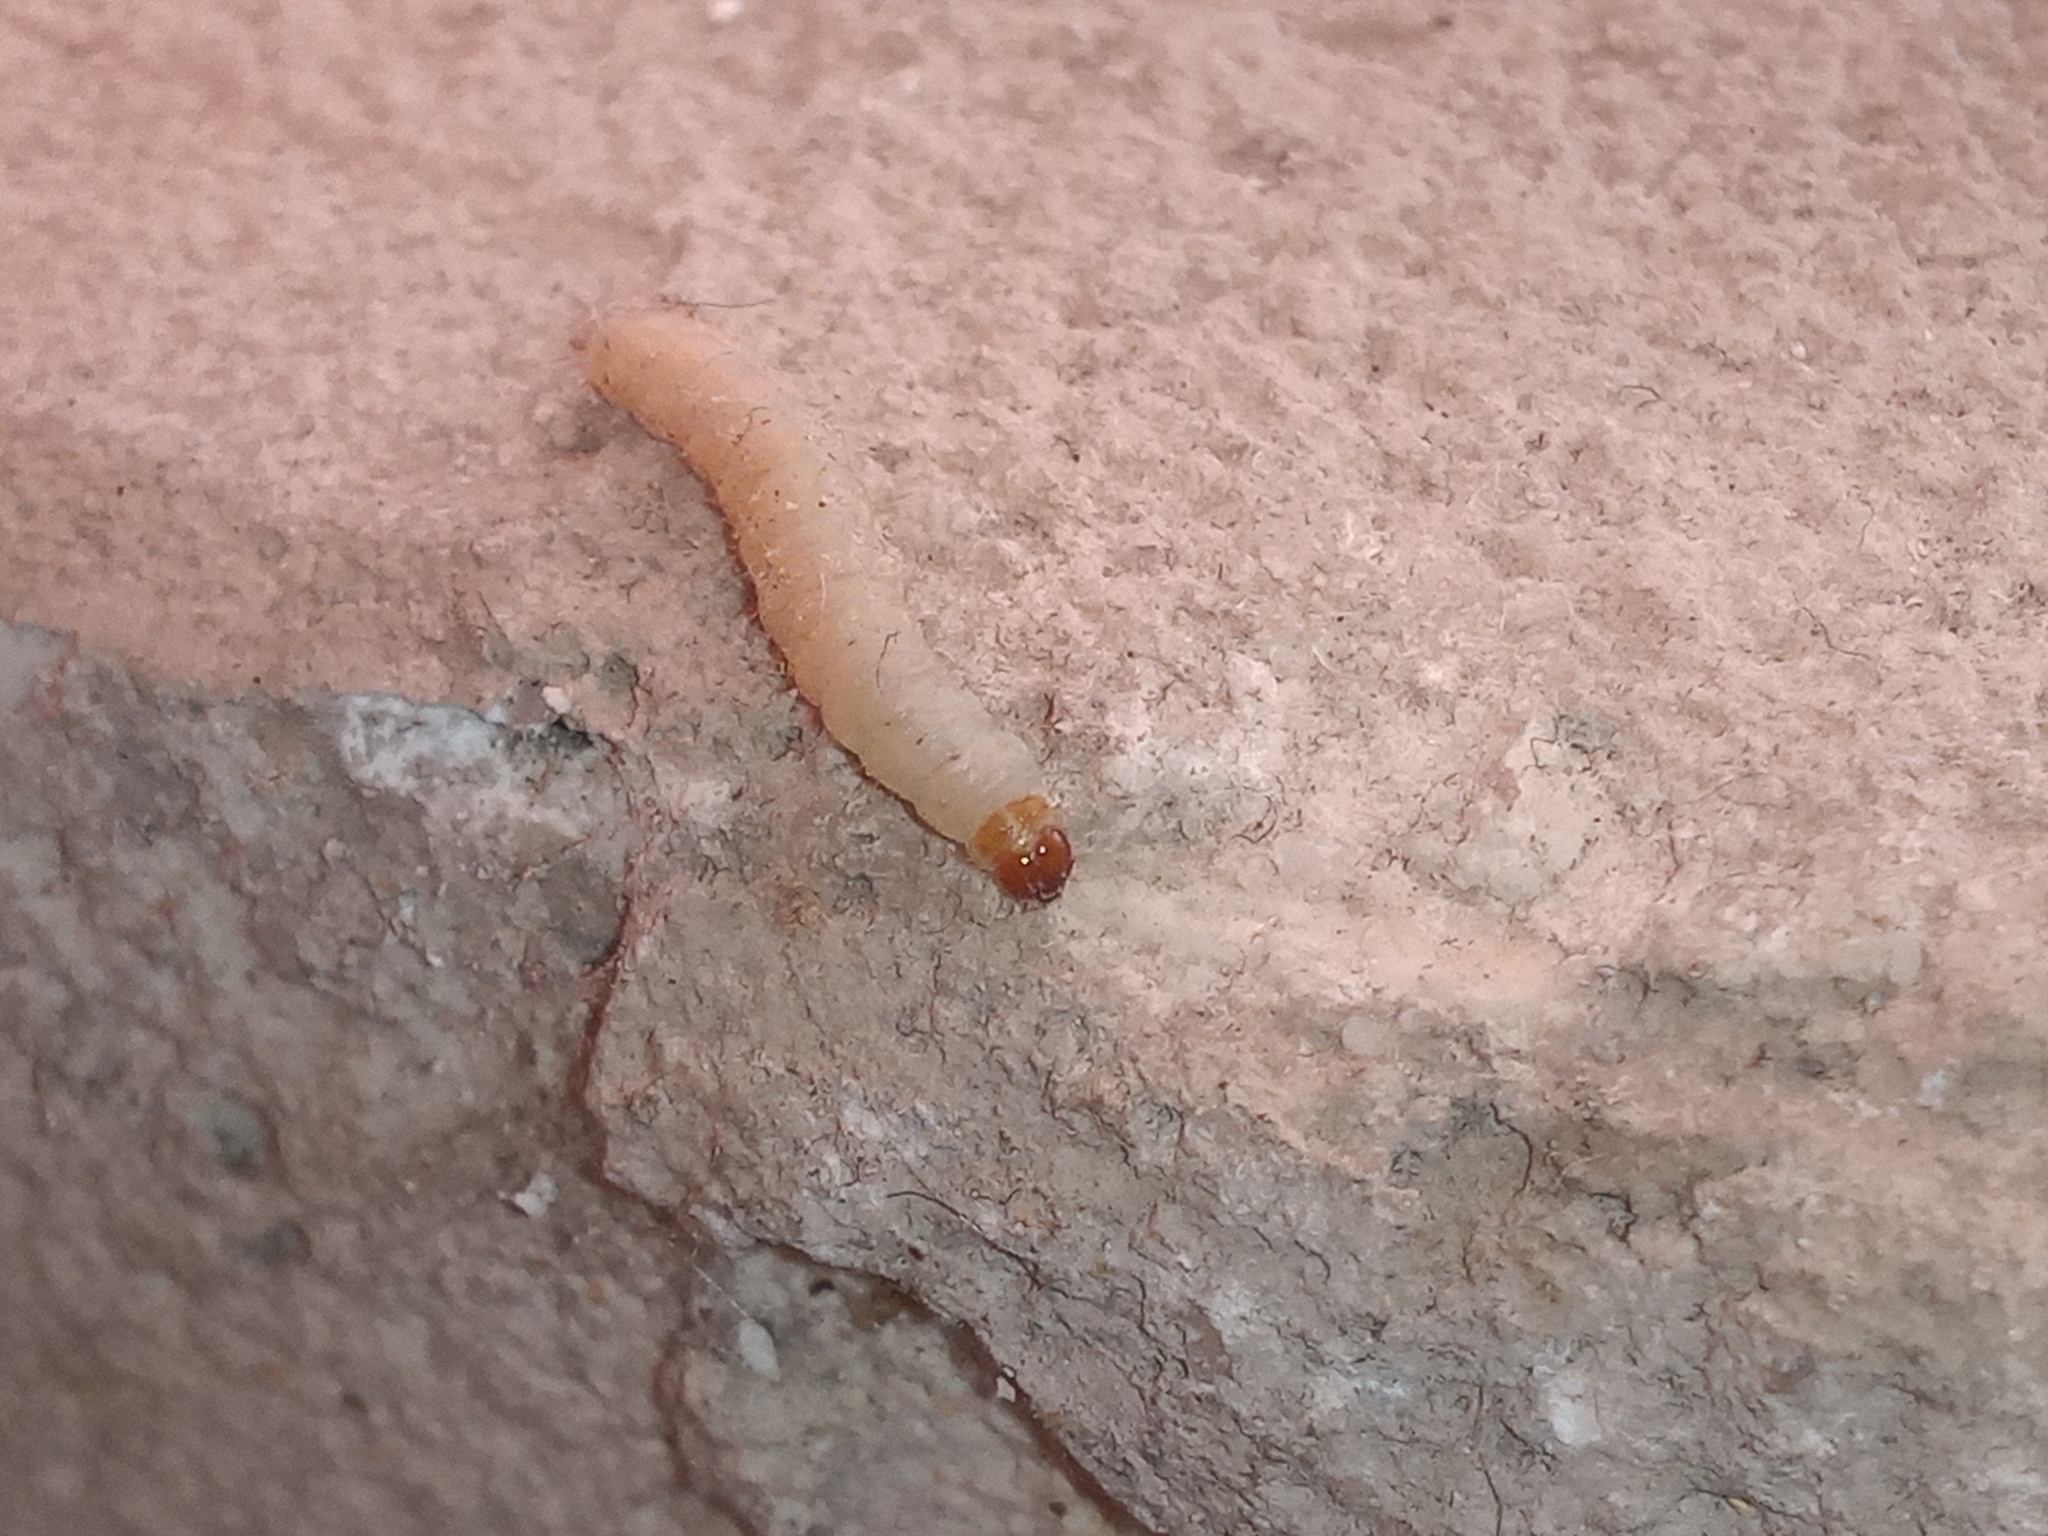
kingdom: Animalia
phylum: Arthropoda
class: Insecta
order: Lepidoptera
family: Pyralidae
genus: Plodia
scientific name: Plodia interpunctella
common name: Indian meal moth
